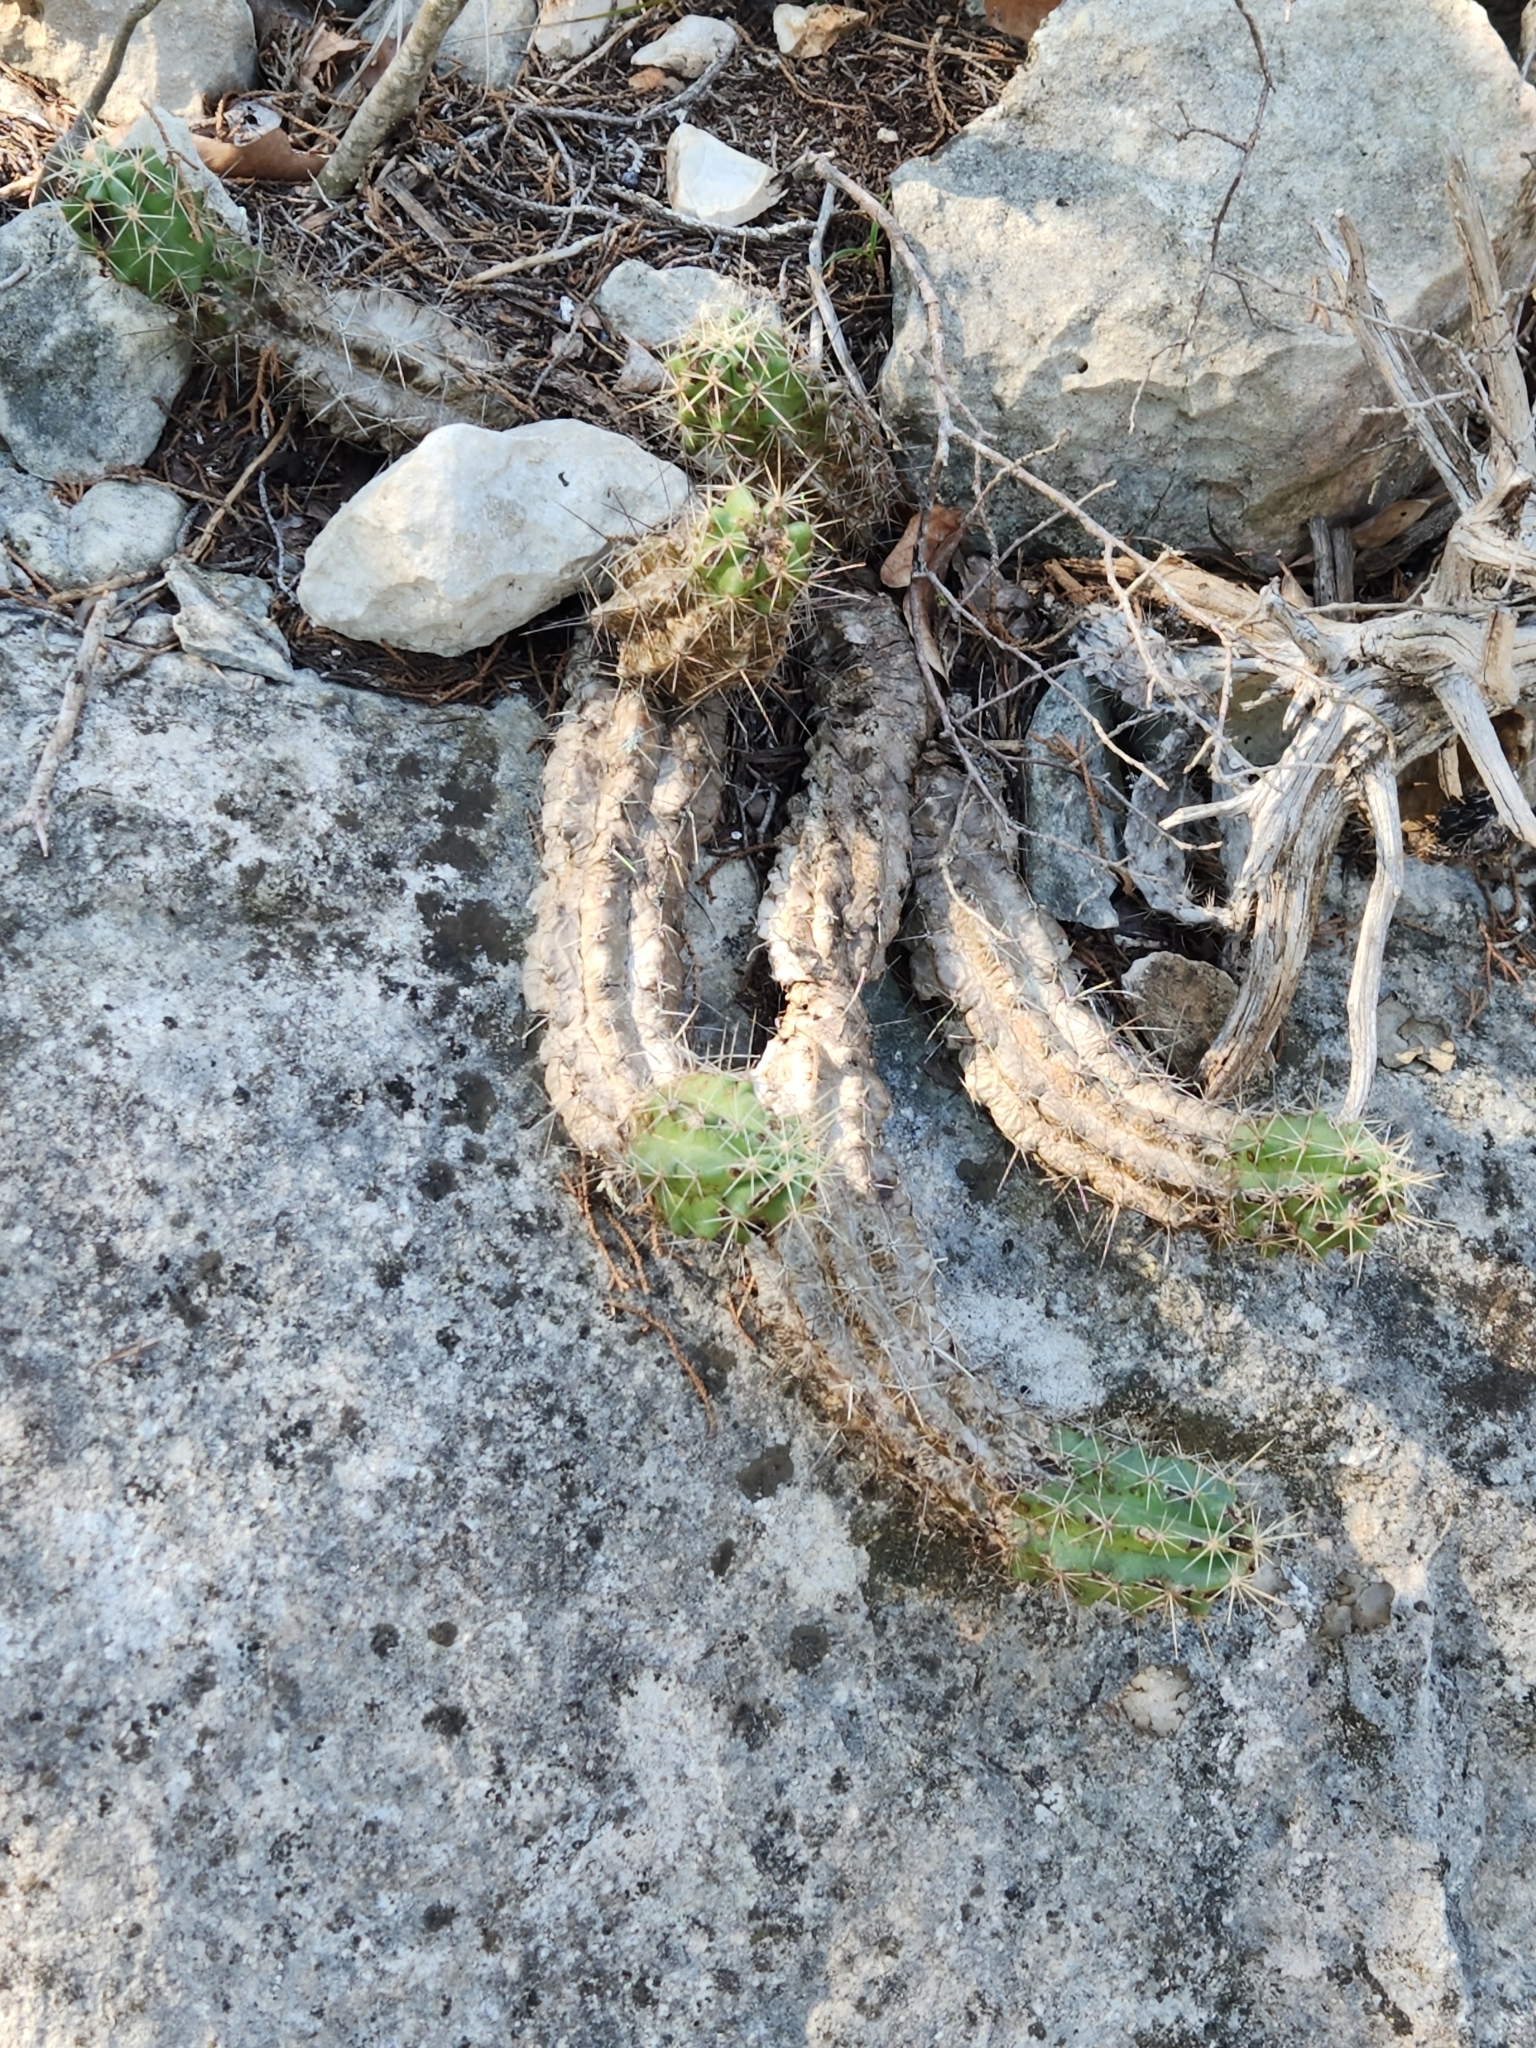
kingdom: Plantae
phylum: Tracheophyta
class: Magnoliopsida
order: Caryophyllales
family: Cactaceae
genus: Echinocereus
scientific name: Echinocereus enneacanthus
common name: Pitaya
